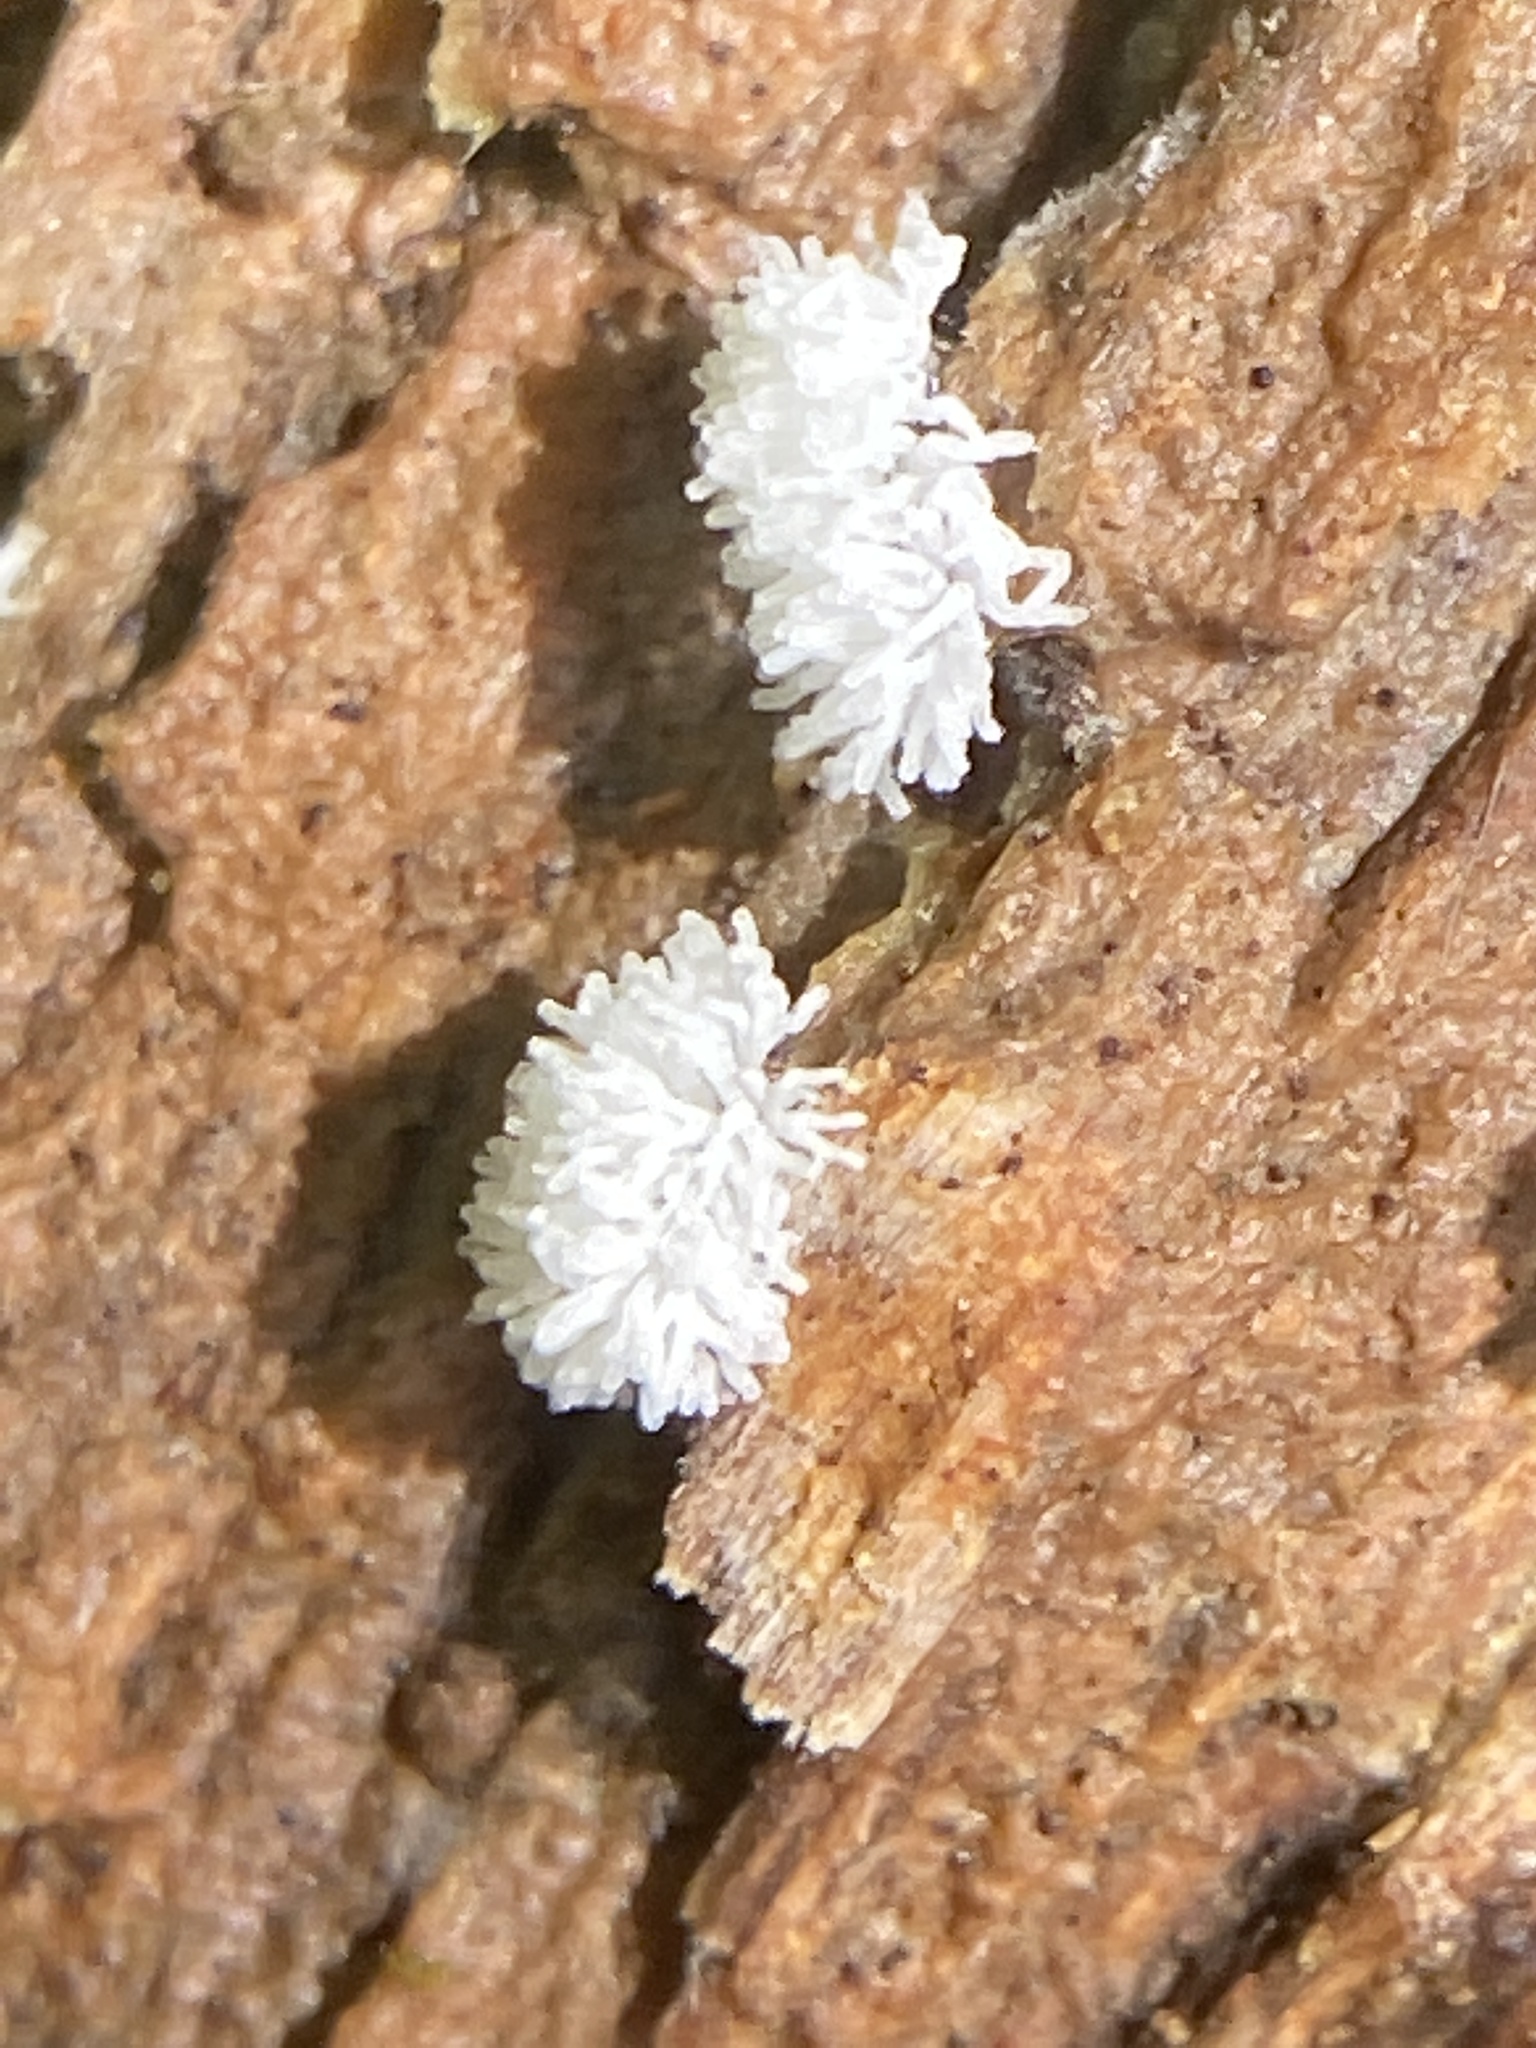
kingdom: Protozoa
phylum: Mycetozoa
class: Protosteliomycetes
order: Ceratiomyxales
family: Ceratiomyxaceae
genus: Ceratiomyxa
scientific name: Ceratiomyxa fruticulosa
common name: Honeycomb coral slime mold
